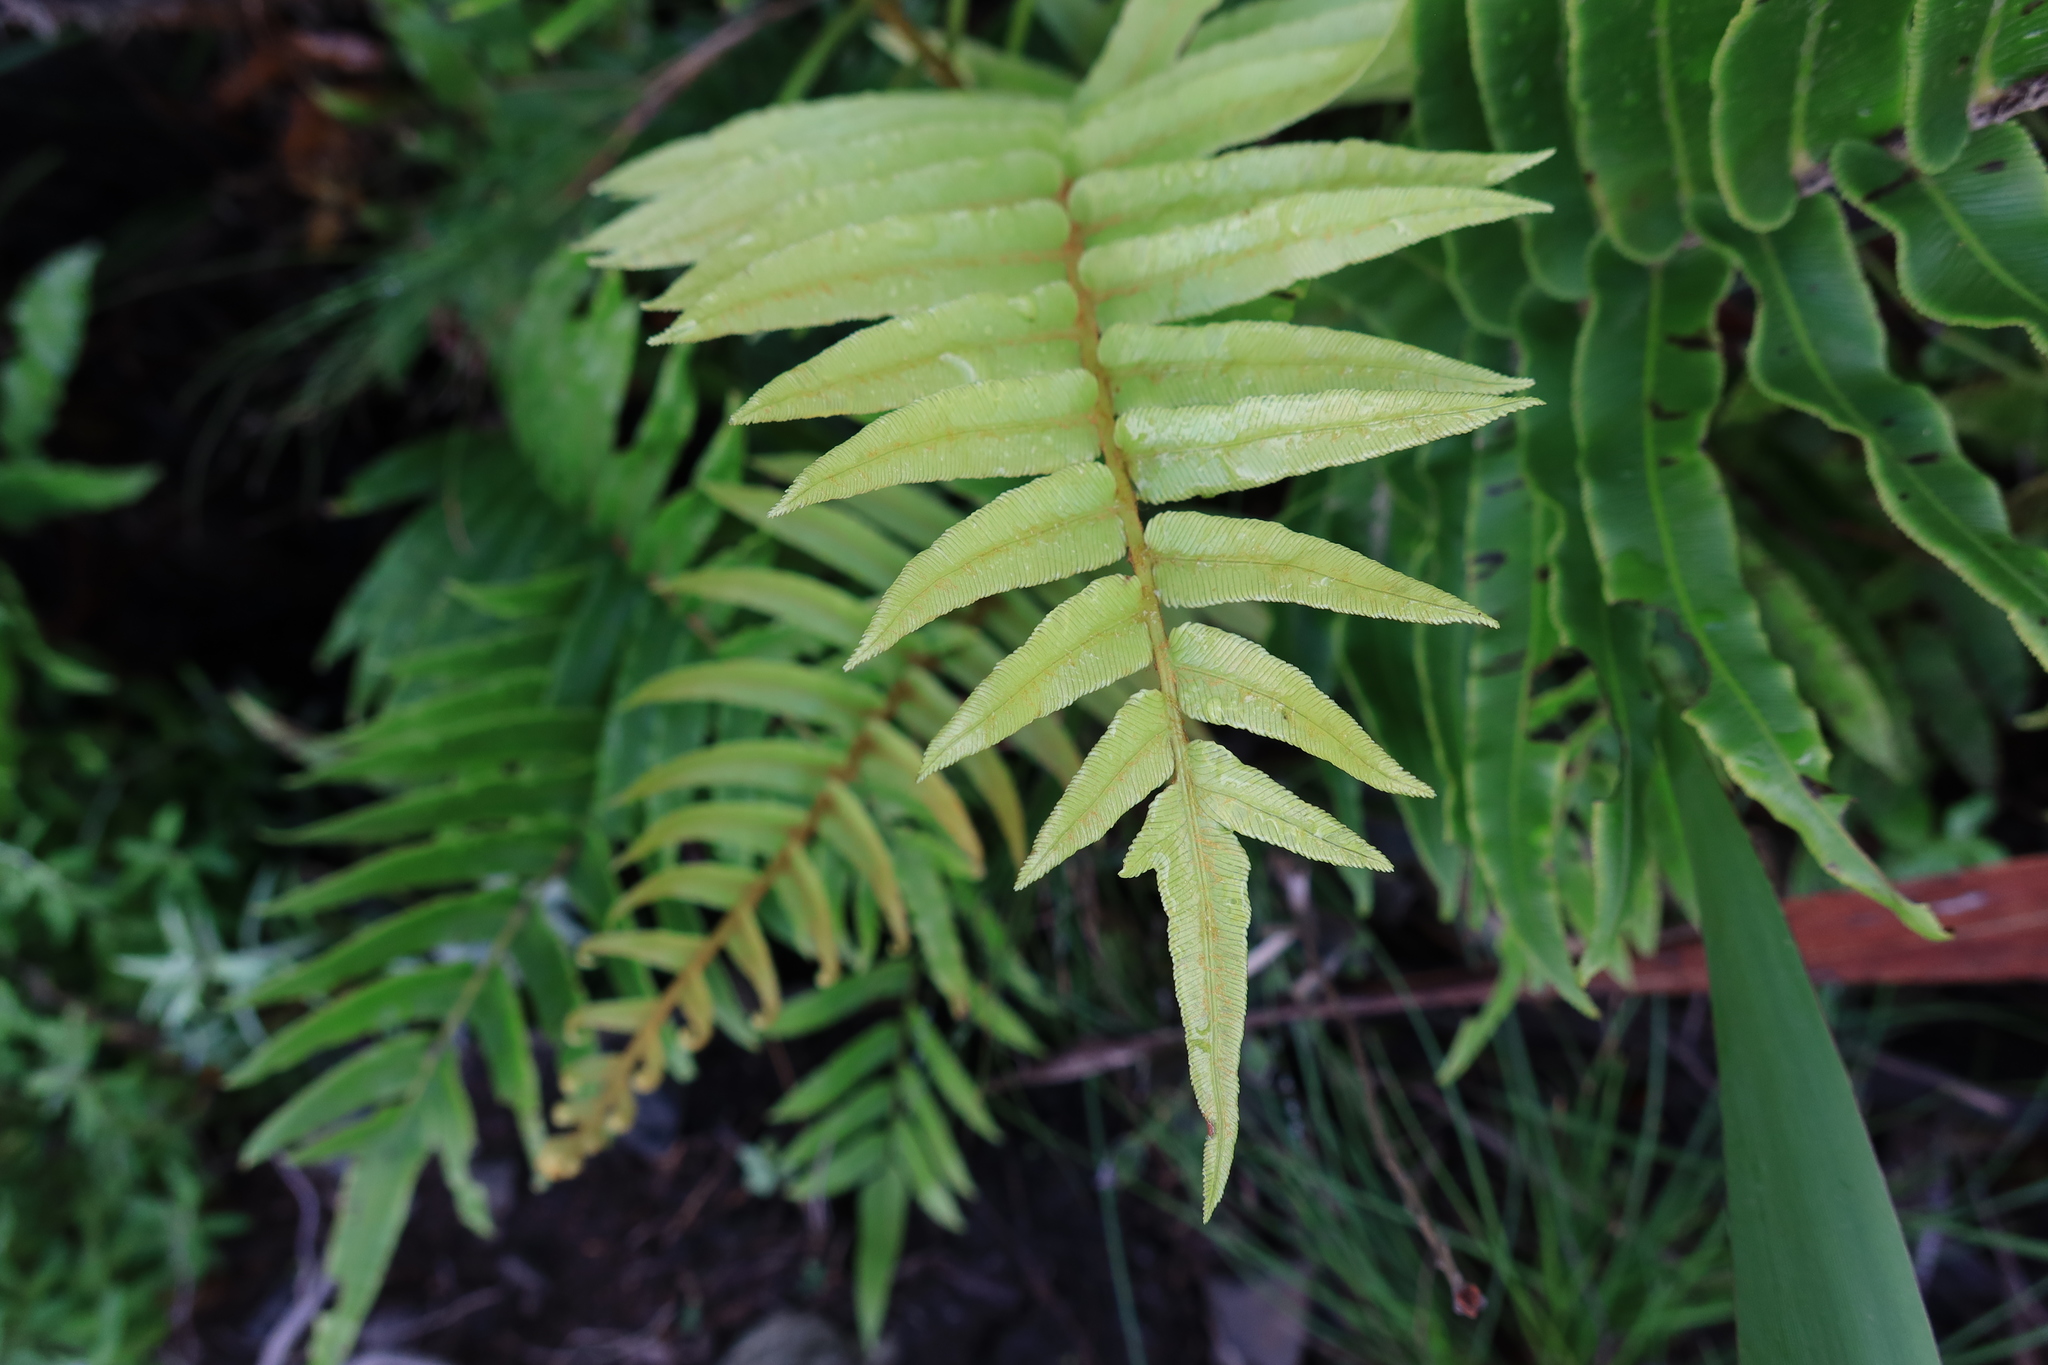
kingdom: Plantae
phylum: Tracheophyta
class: Polypodiopsida
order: Polypodiales
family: Blechnaceae
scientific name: Blechnaceae
